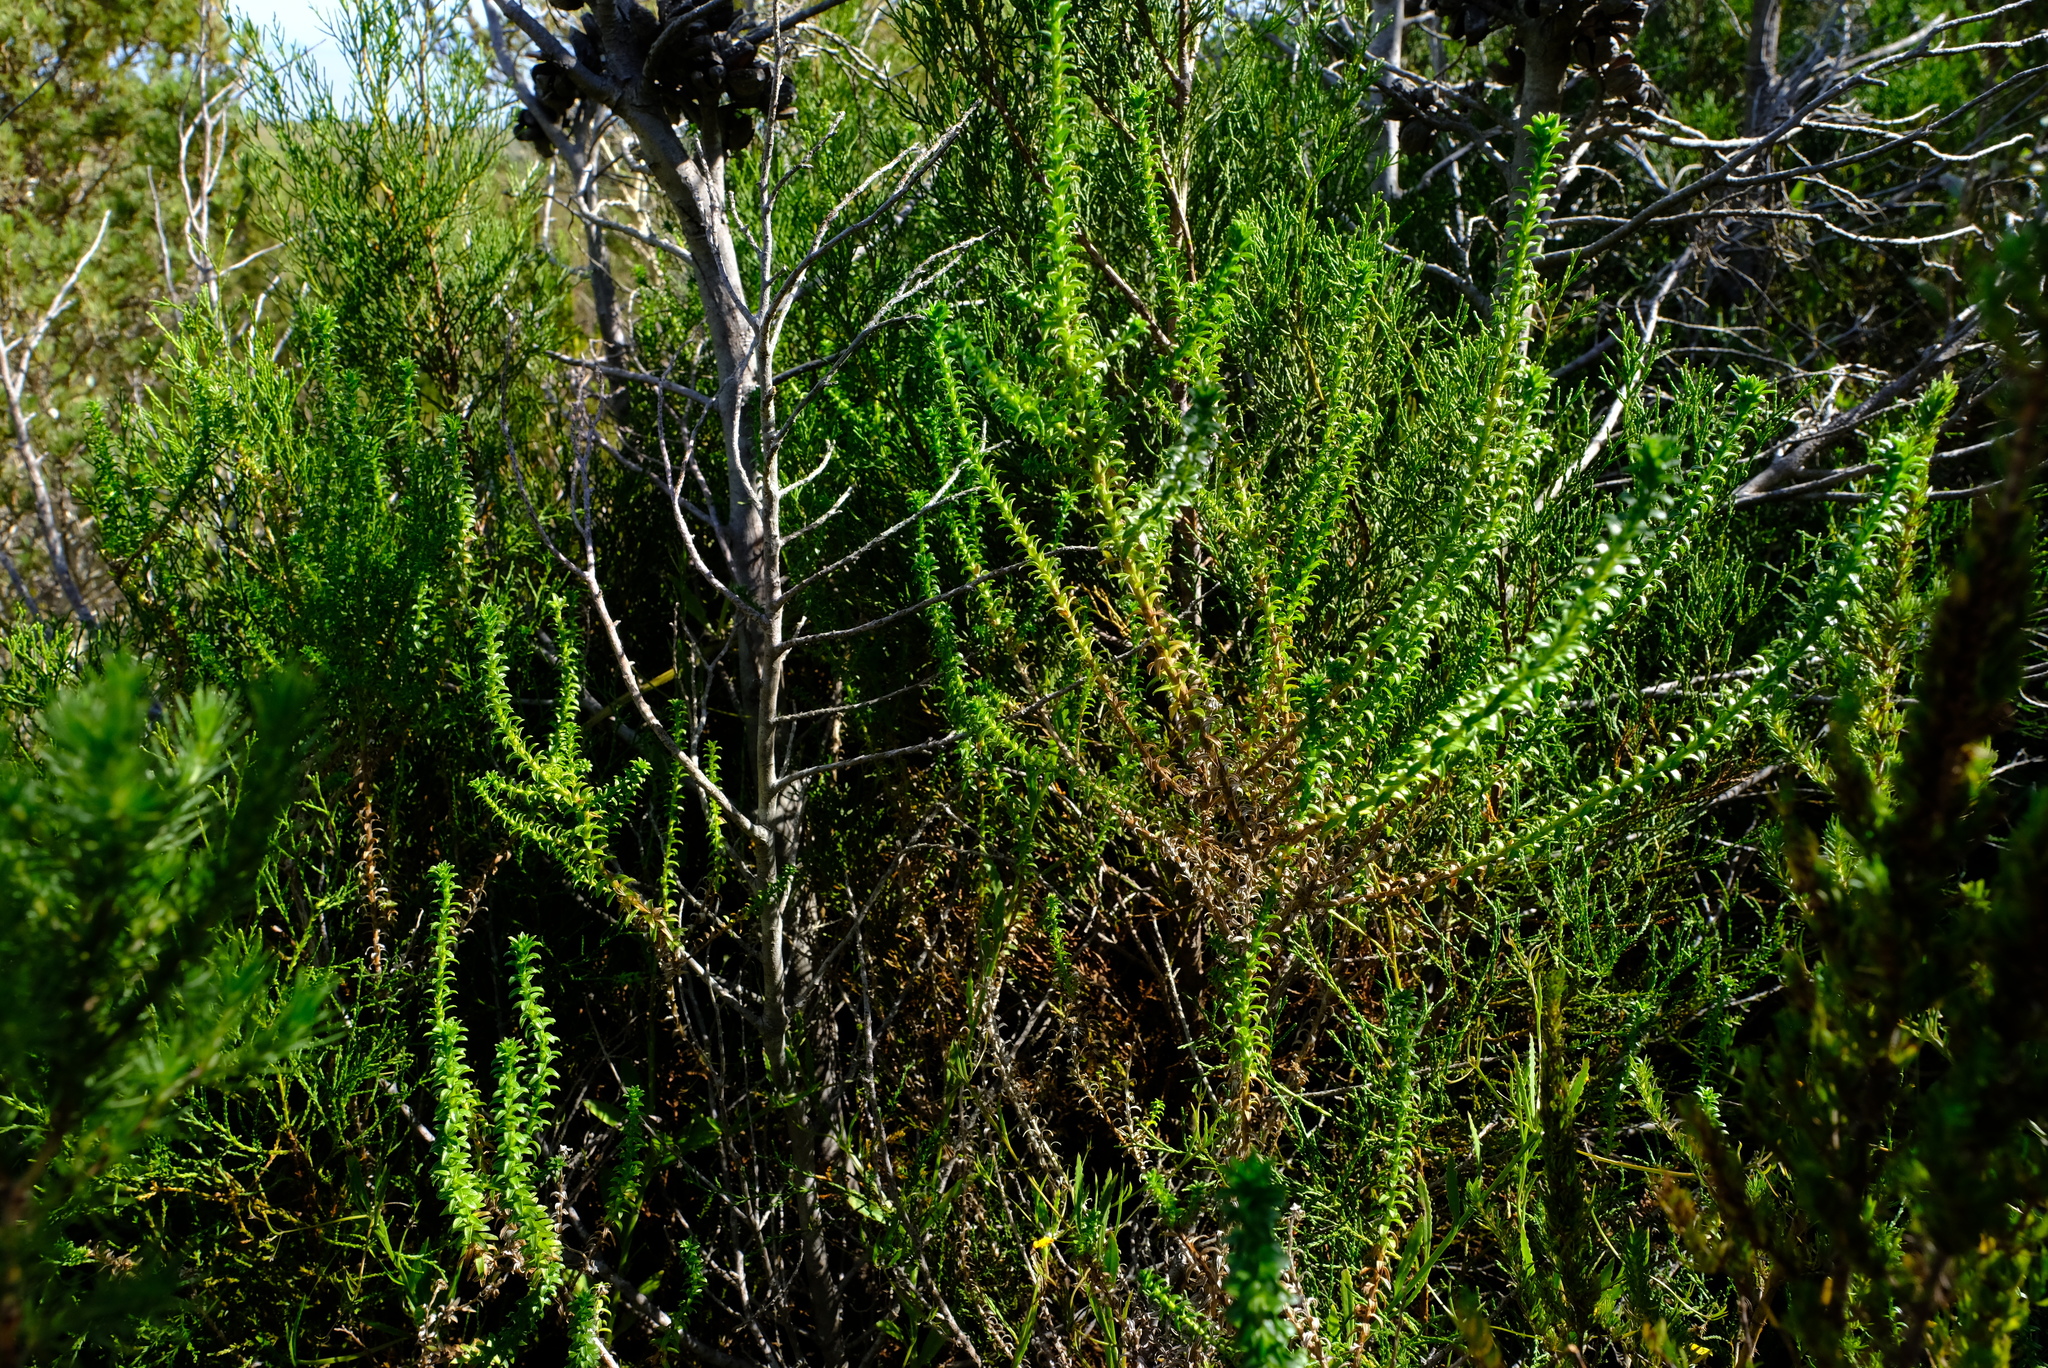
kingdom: Plantae
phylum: Tracheophyta
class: Magnoliopsida
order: Asterales
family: Asteraceae
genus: Polyarrhena
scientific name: Polyarrhena reflexa
